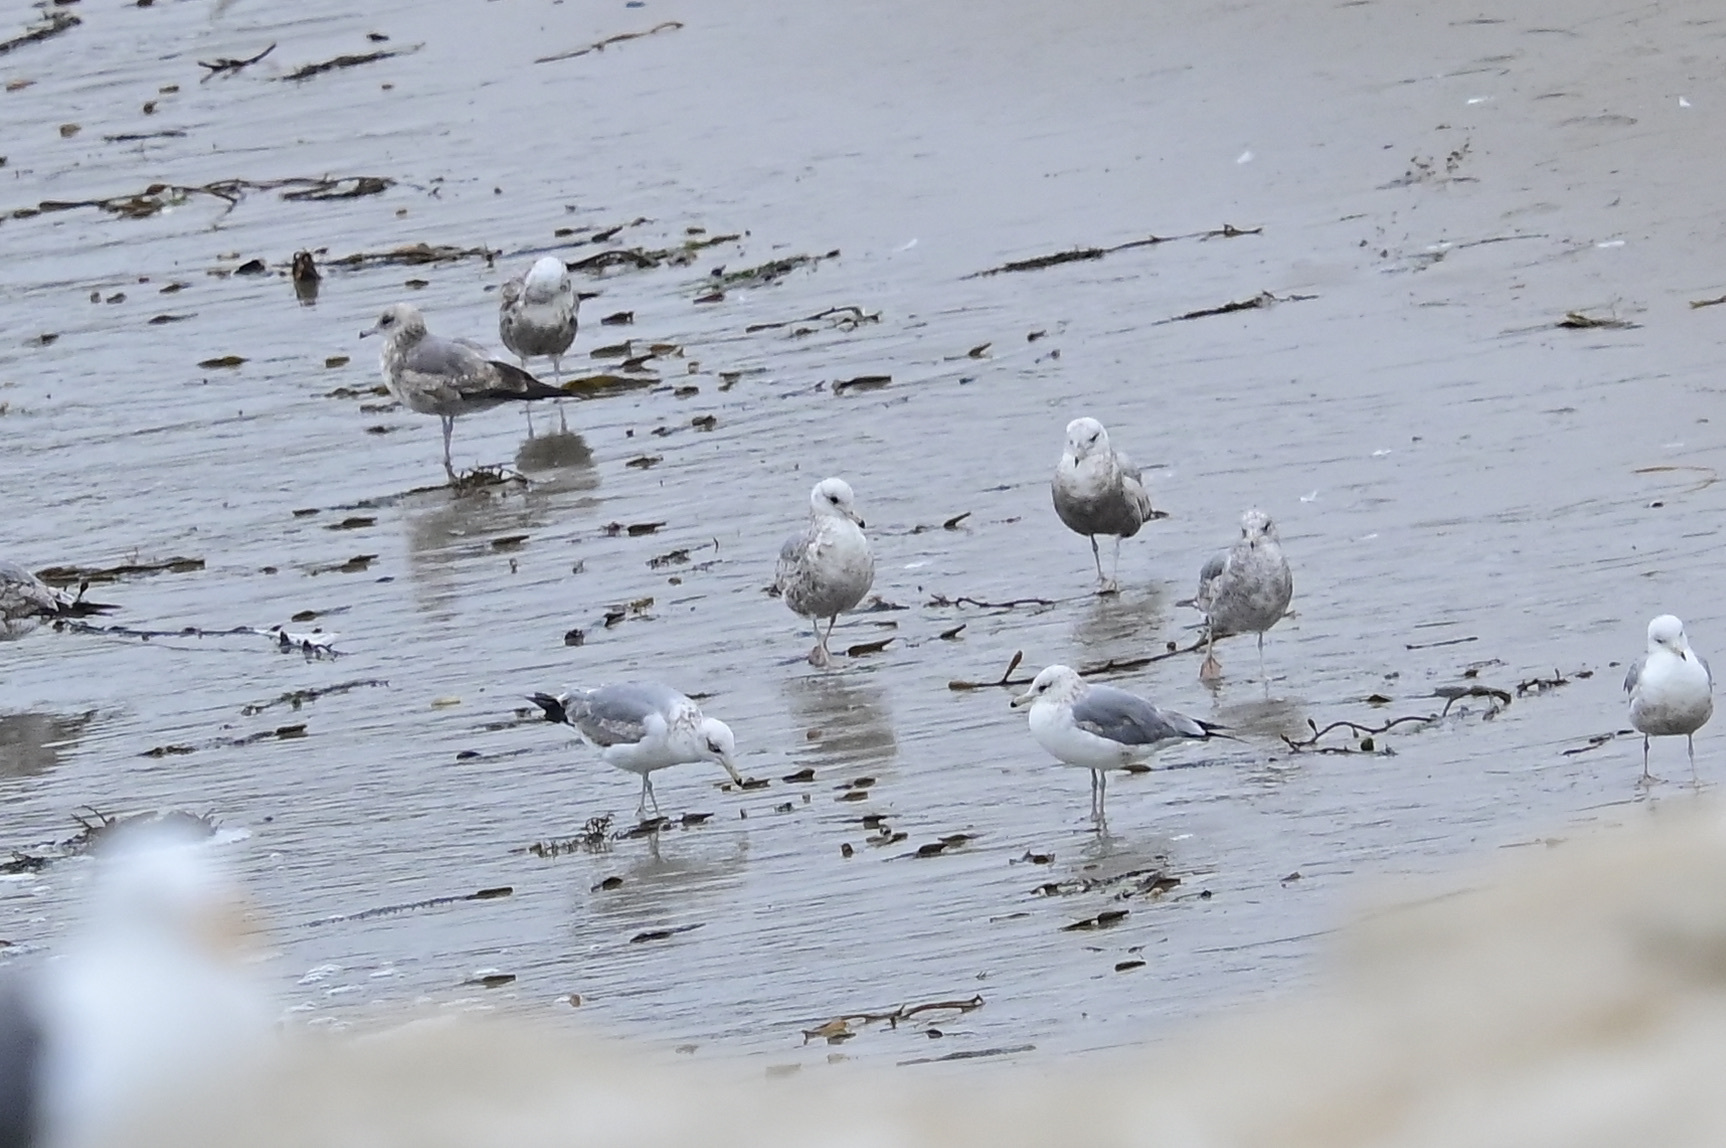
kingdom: Animalia
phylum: Chordata
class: Aves
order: Charadriiformes
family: Laridae
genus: Larus
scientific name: Larus californicus
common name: California gull
